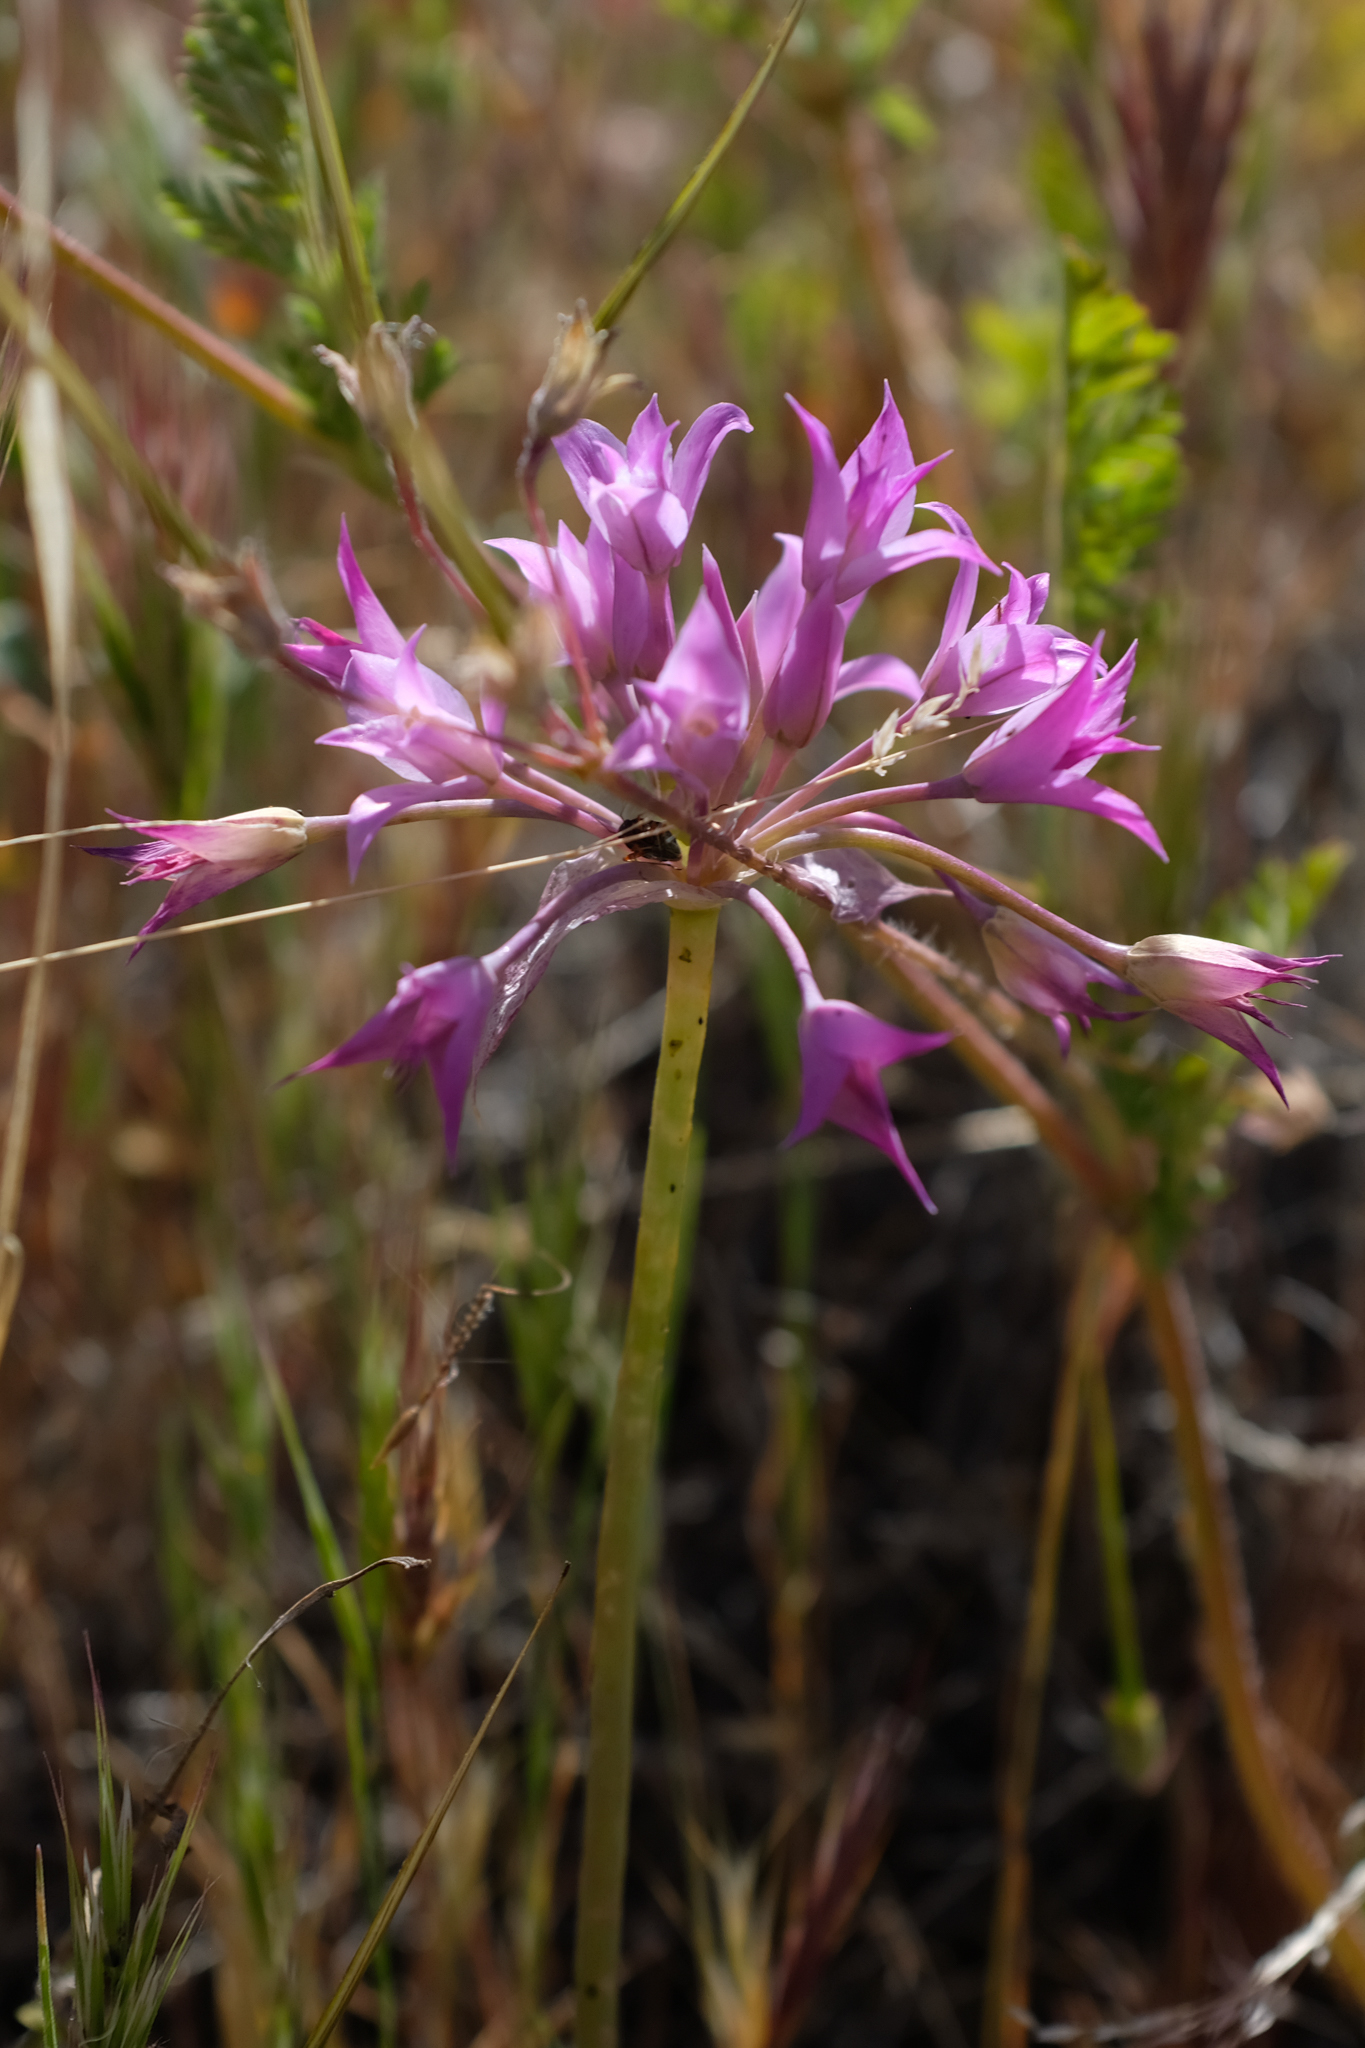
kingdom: Plantae
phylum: Tracheophyta
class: Liliopsida
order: Asparagales
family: Amaryllidaceae
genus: Allium
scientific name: Allium peninsulare
